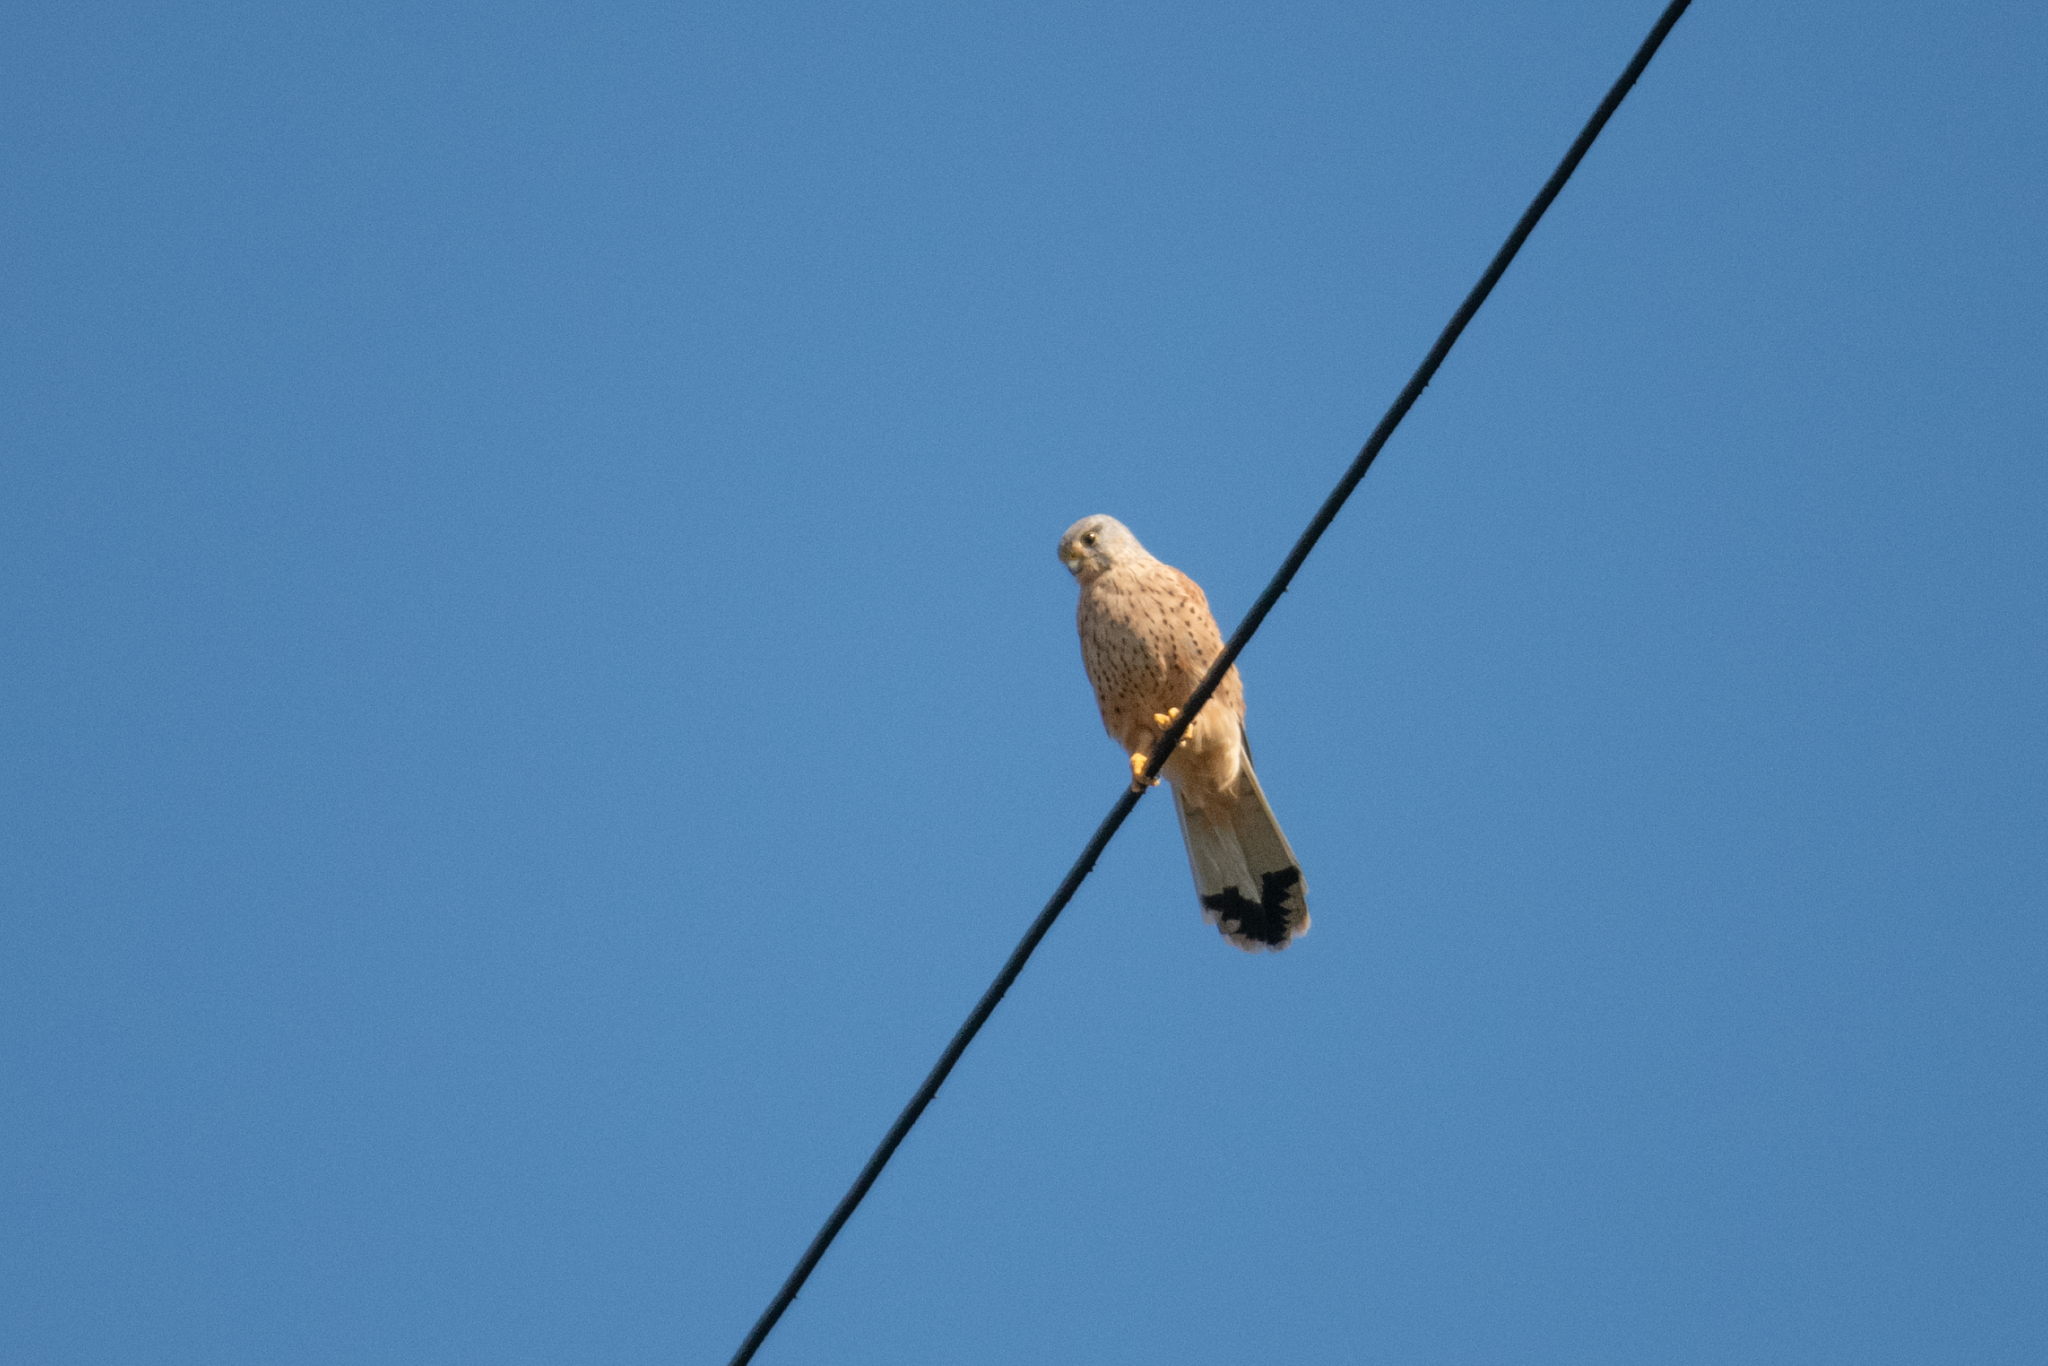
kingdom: Animalia
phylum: Chordata
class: Aves
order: Falconiformes
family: Falconidae
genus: Falco
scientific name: Falco tinnunculus
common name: Common kestrel
